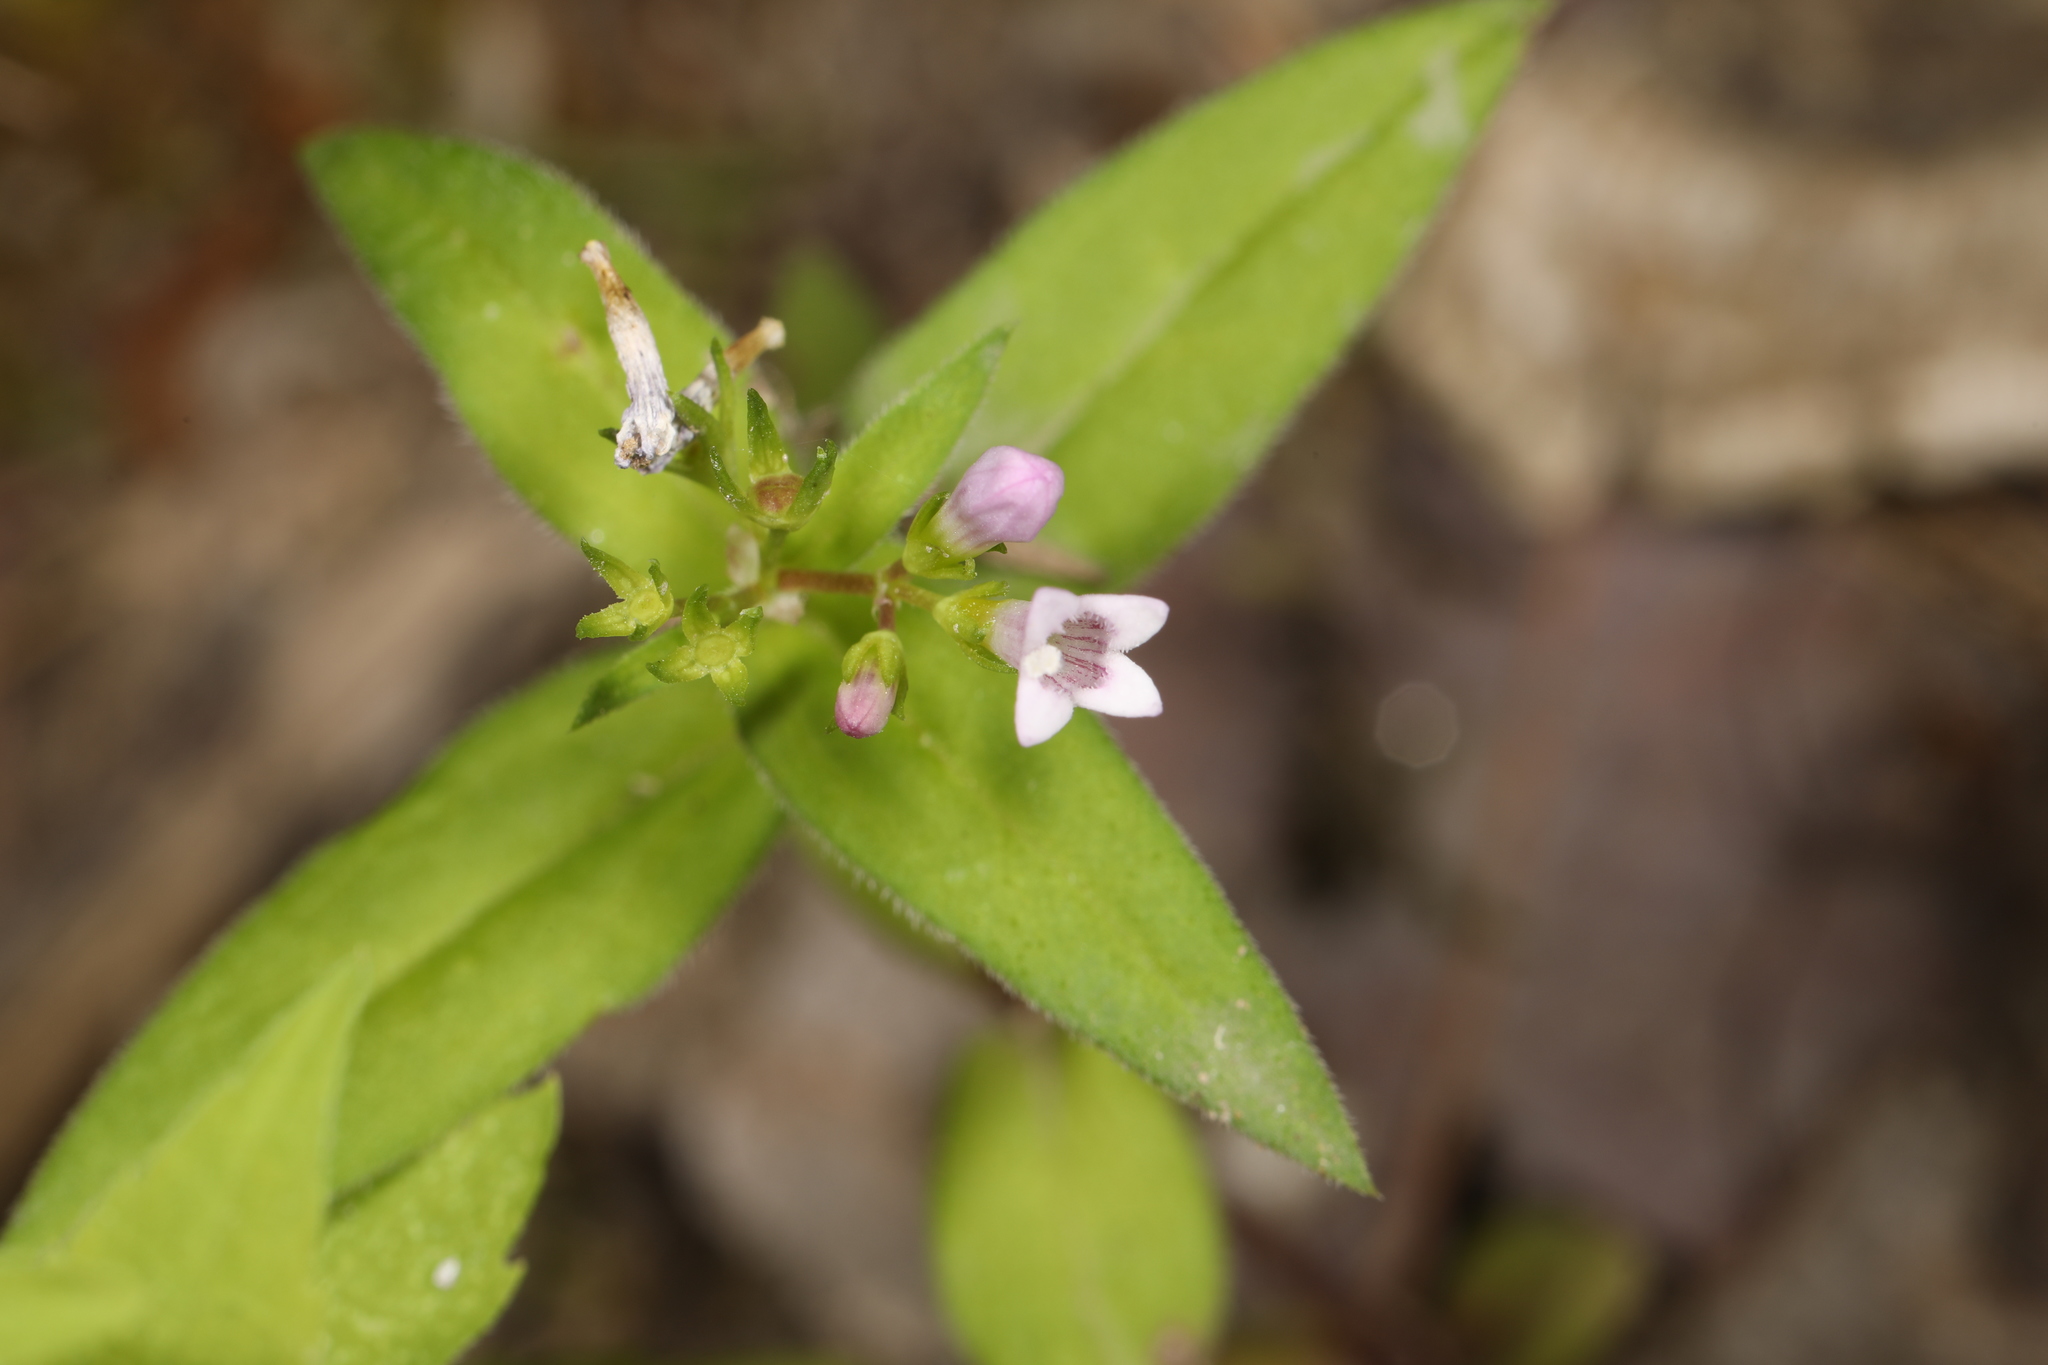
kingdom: Plantae
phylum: Tracheophyta
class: Magnoliopsida
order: Gentianales
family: Rubiaceae
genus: Houstonia
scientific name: Houstonia purpurea
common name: Summer bluet
